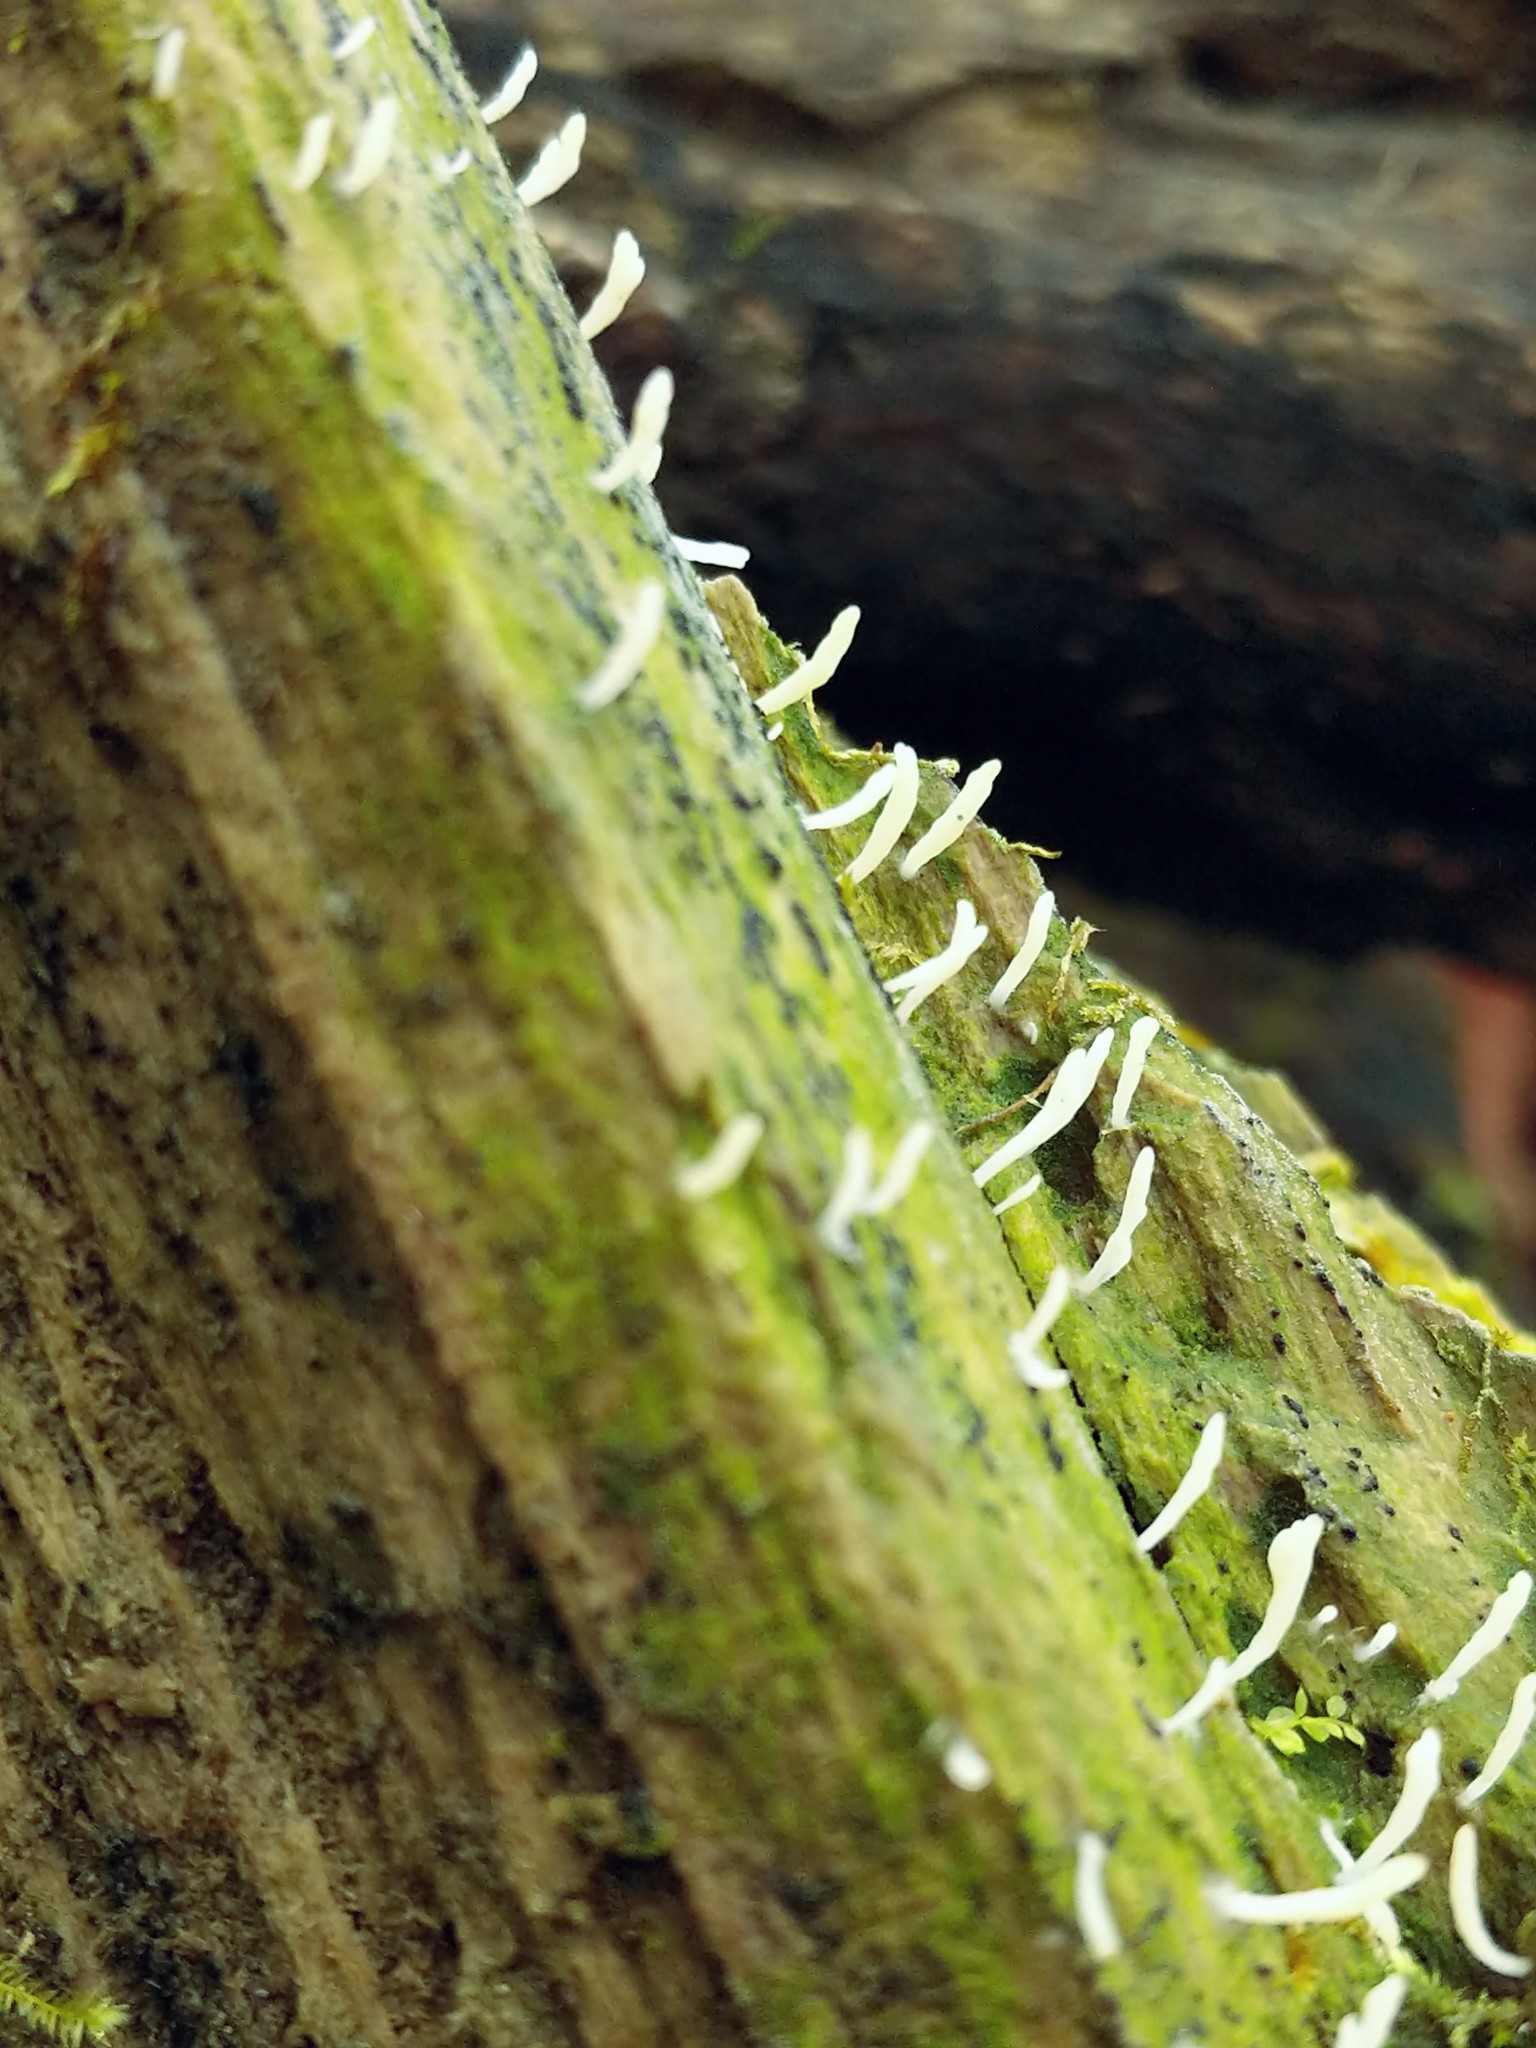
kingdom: Fungi
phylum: Basidiomycota
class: Agaricomycetes
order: Cantharellales
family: Hydnaceae
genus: Multiclavula
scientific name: Multiclavula mucida
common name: White green-algae coral
